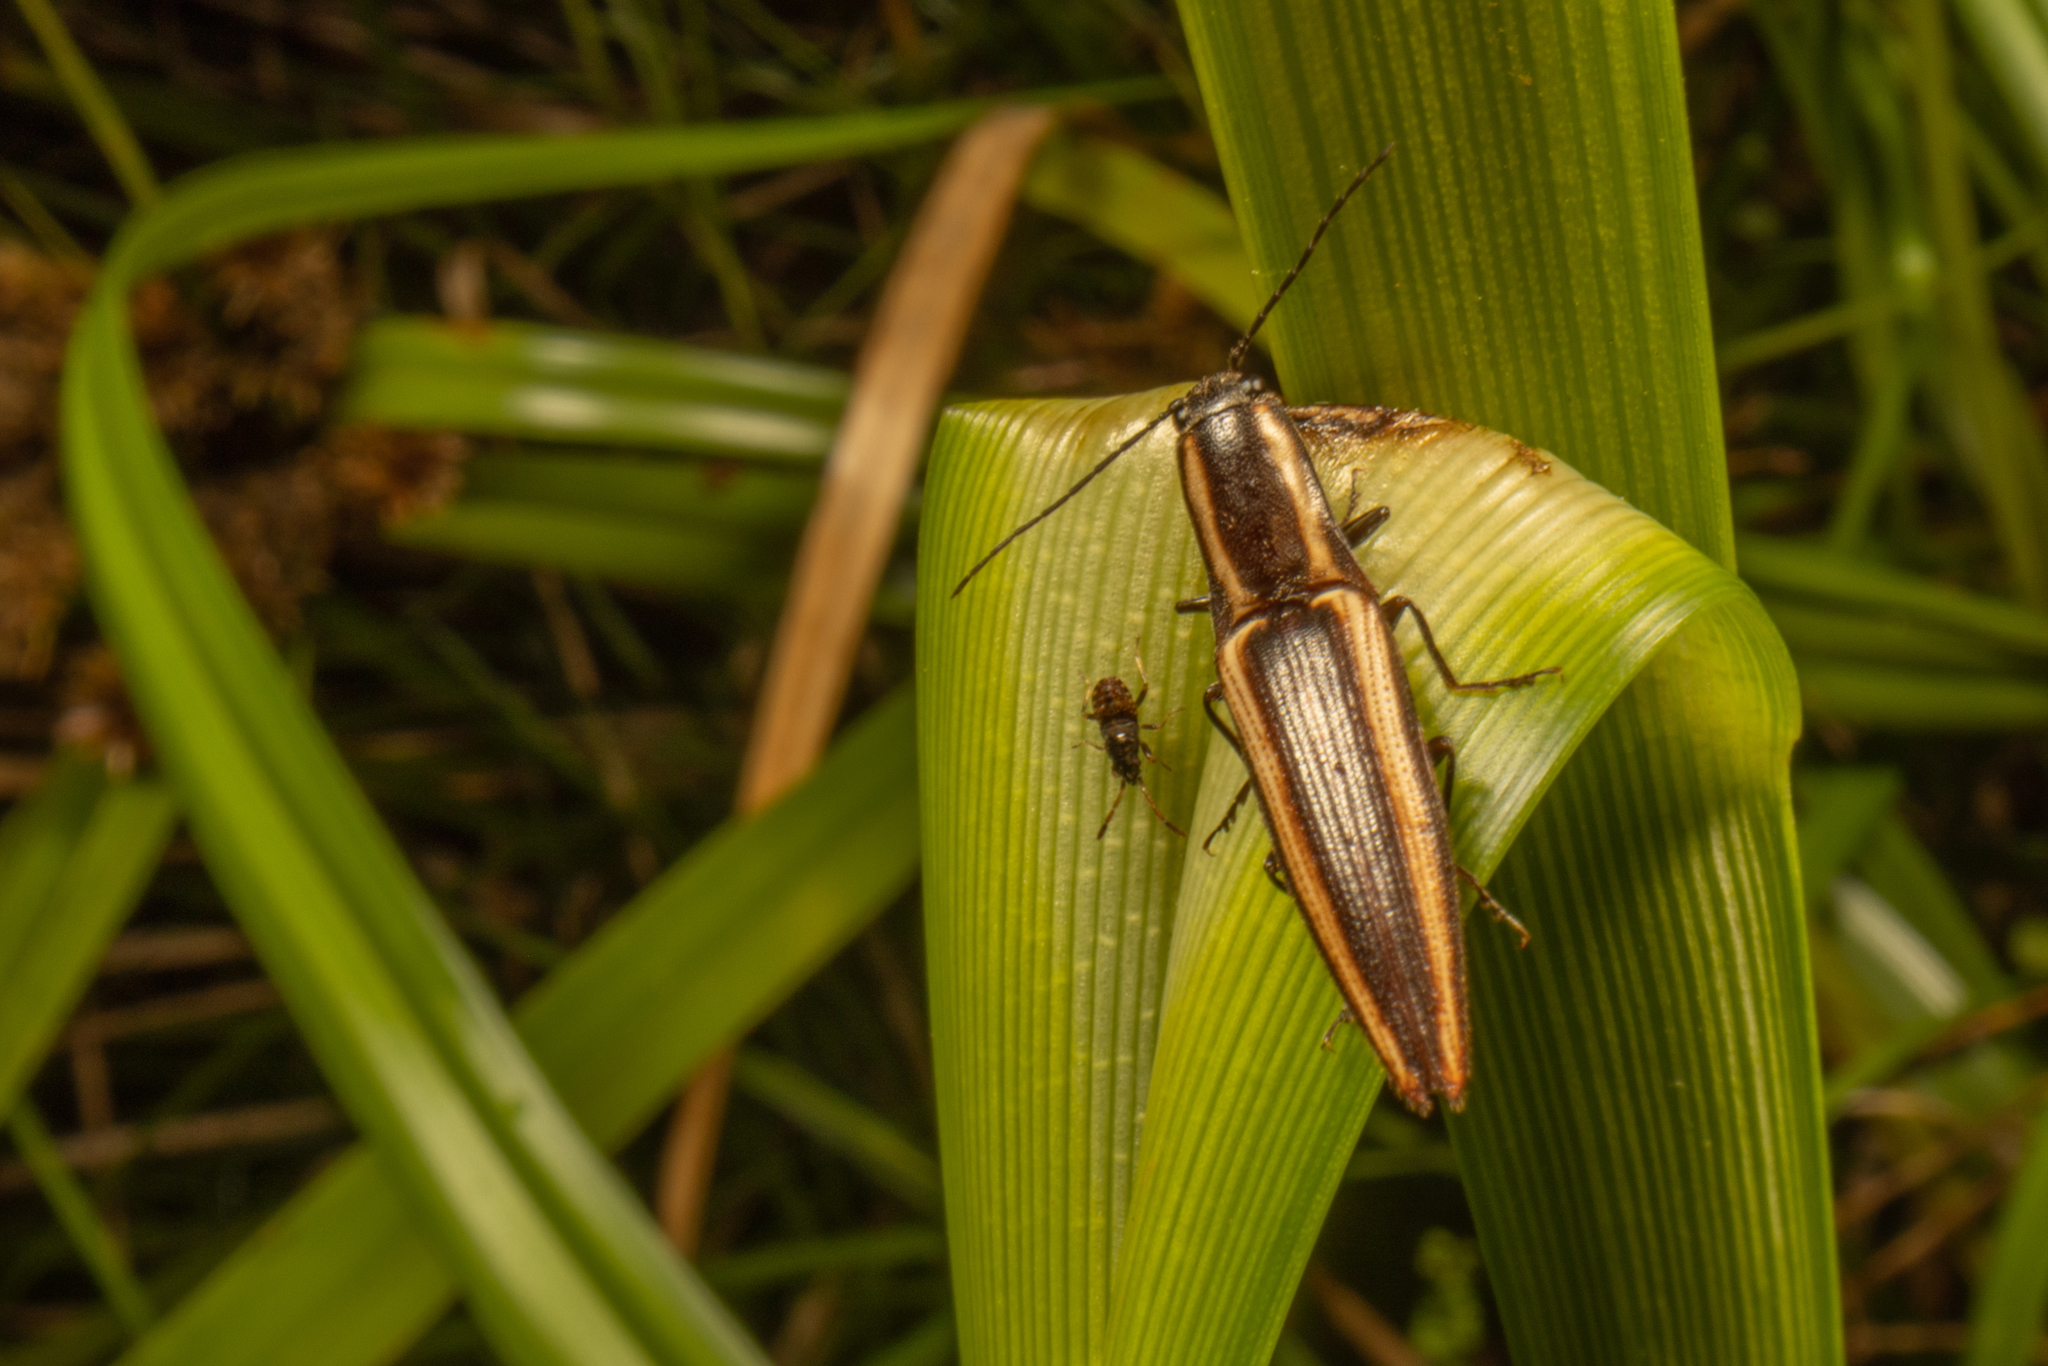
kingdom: Animalia
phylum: Arthropoda
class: Insecta
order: Coleoptera
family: Elateridae
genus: Metablax
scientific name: Metablax
